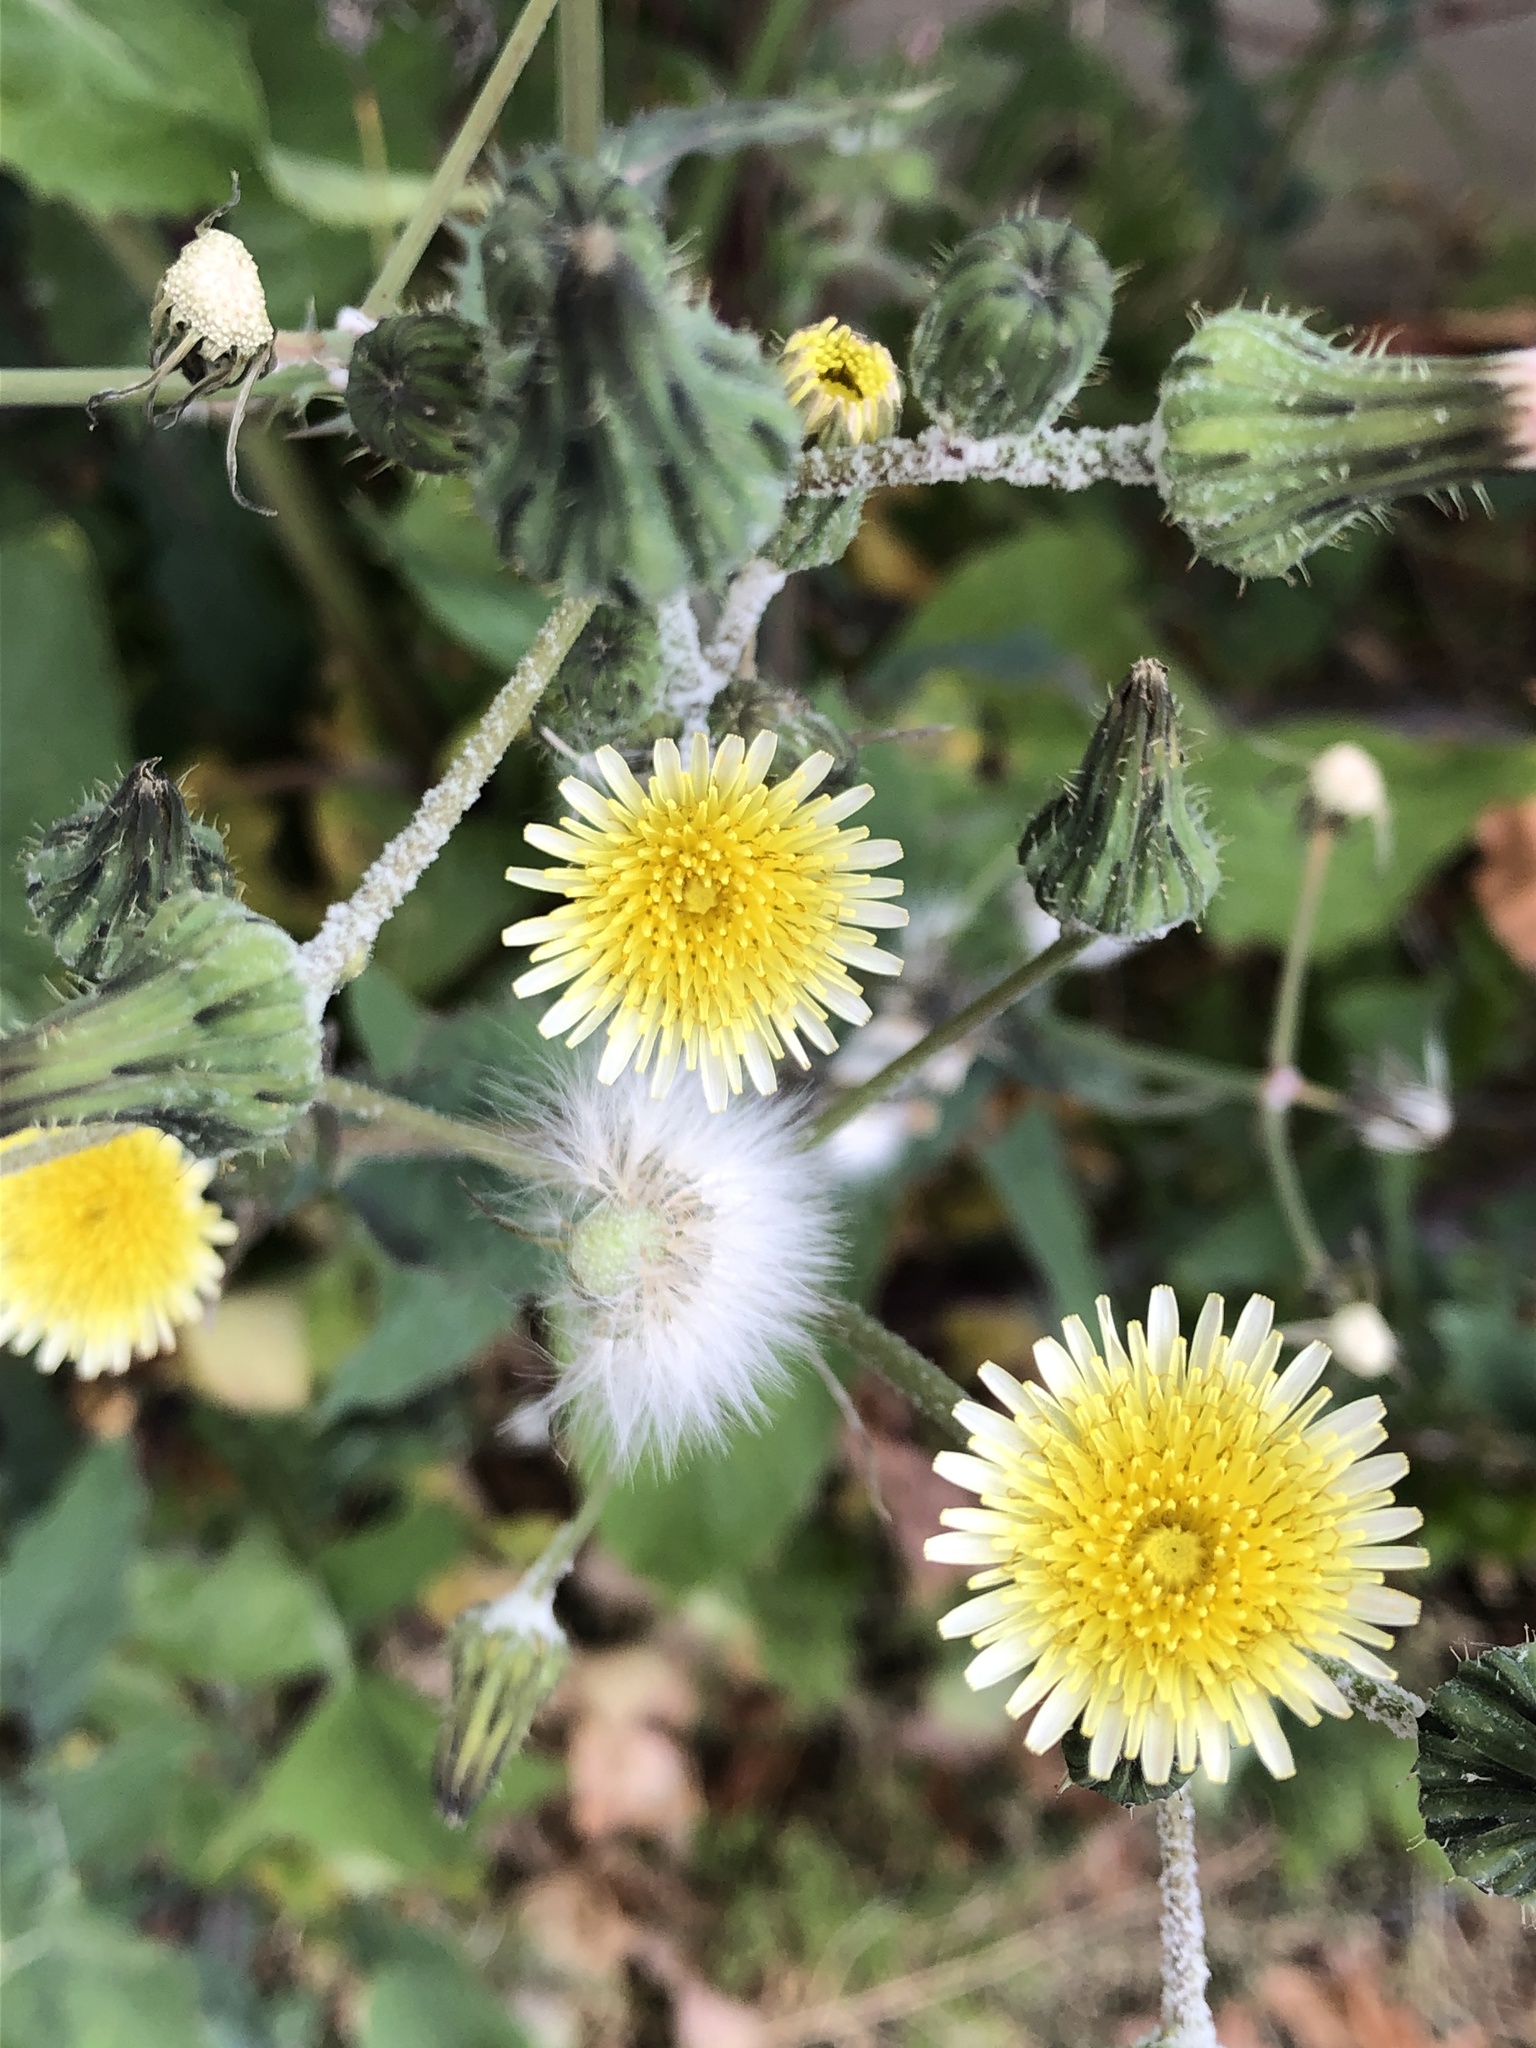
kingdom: Plantae
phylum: Tracheophyta
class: Magnoliopsida
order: Asterales
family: Asteraceae
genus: Sonchus
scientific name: Sonchus oleraceus
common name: Common sowthistle
